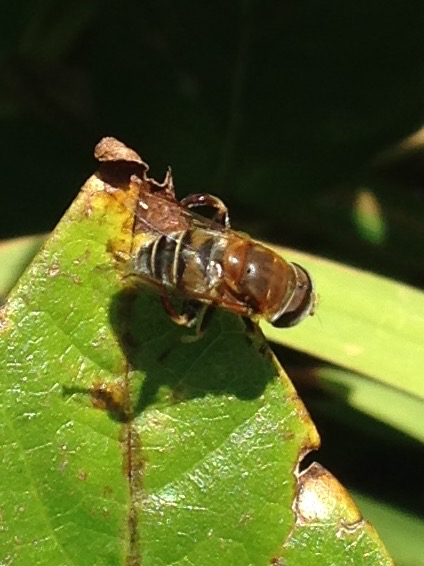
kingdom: Animalia
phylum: Arthropoda
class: Insecta
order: Diptera
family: Syrphidae
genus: Palpada
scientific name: Palpada mexicana
